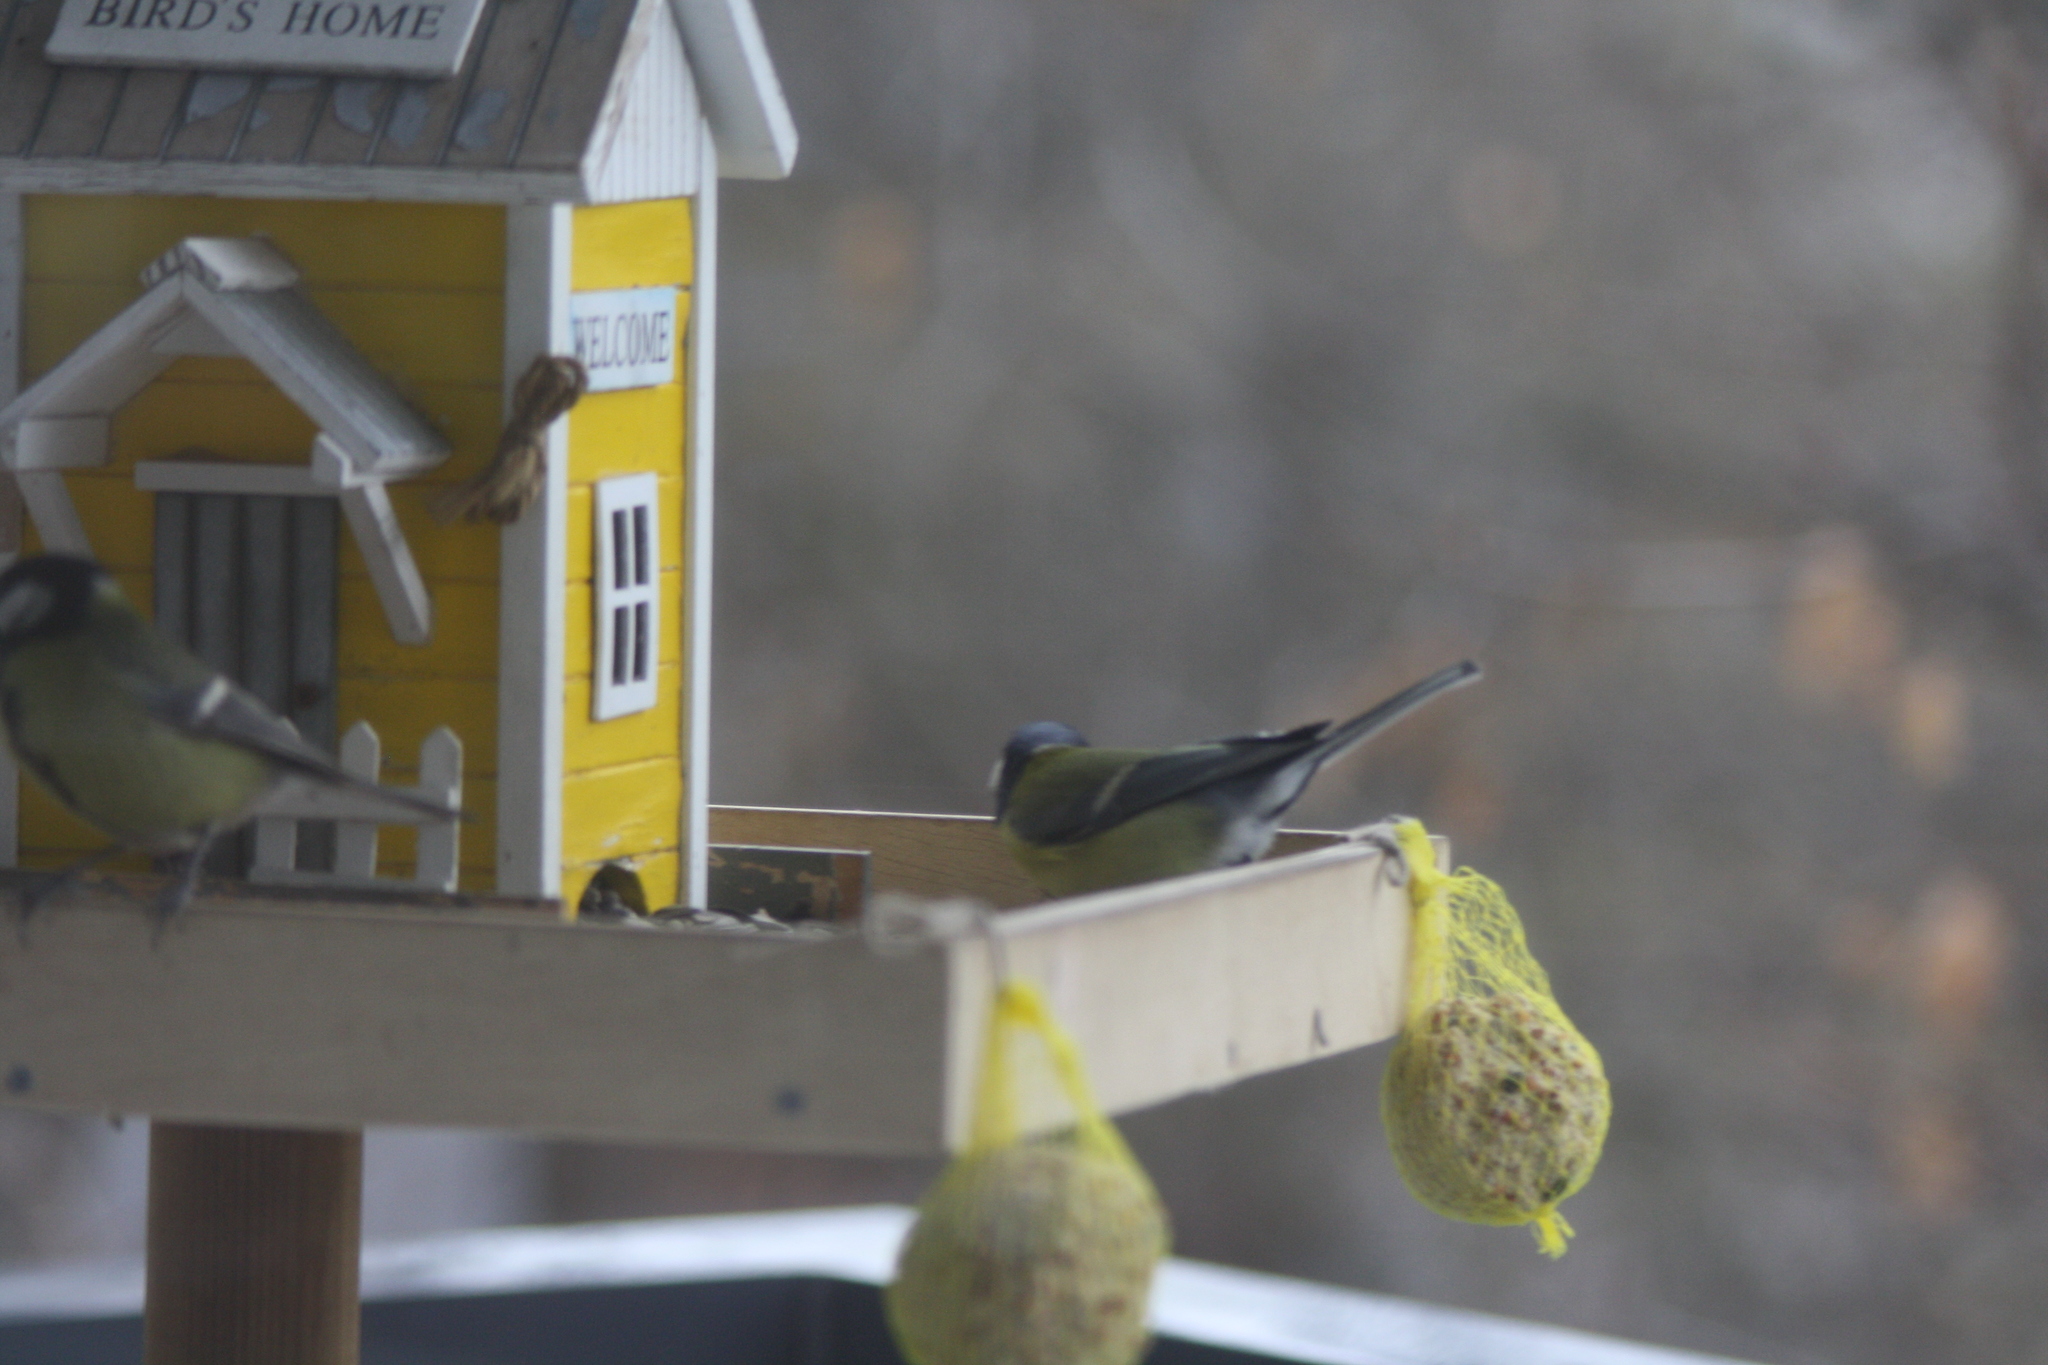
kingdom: Animalia
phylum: Chordata
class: Aves
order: Passeriformes
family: Paridae
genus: Parus
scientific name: Parus major
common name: Great tit
